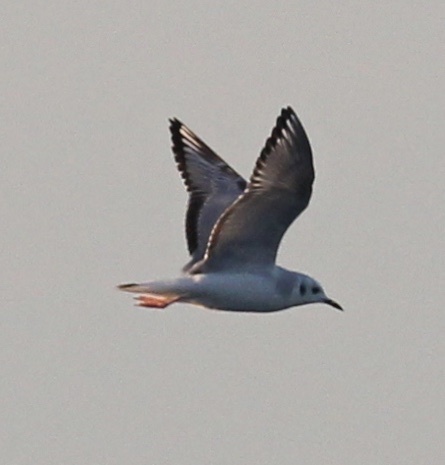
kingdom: Animalia
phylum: Chordata
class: Aves
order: Charadriiformes
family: Laridae
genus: Chroicocephalus
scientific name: Chroicocephalus philadelphia
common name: Bonaparte's gull
